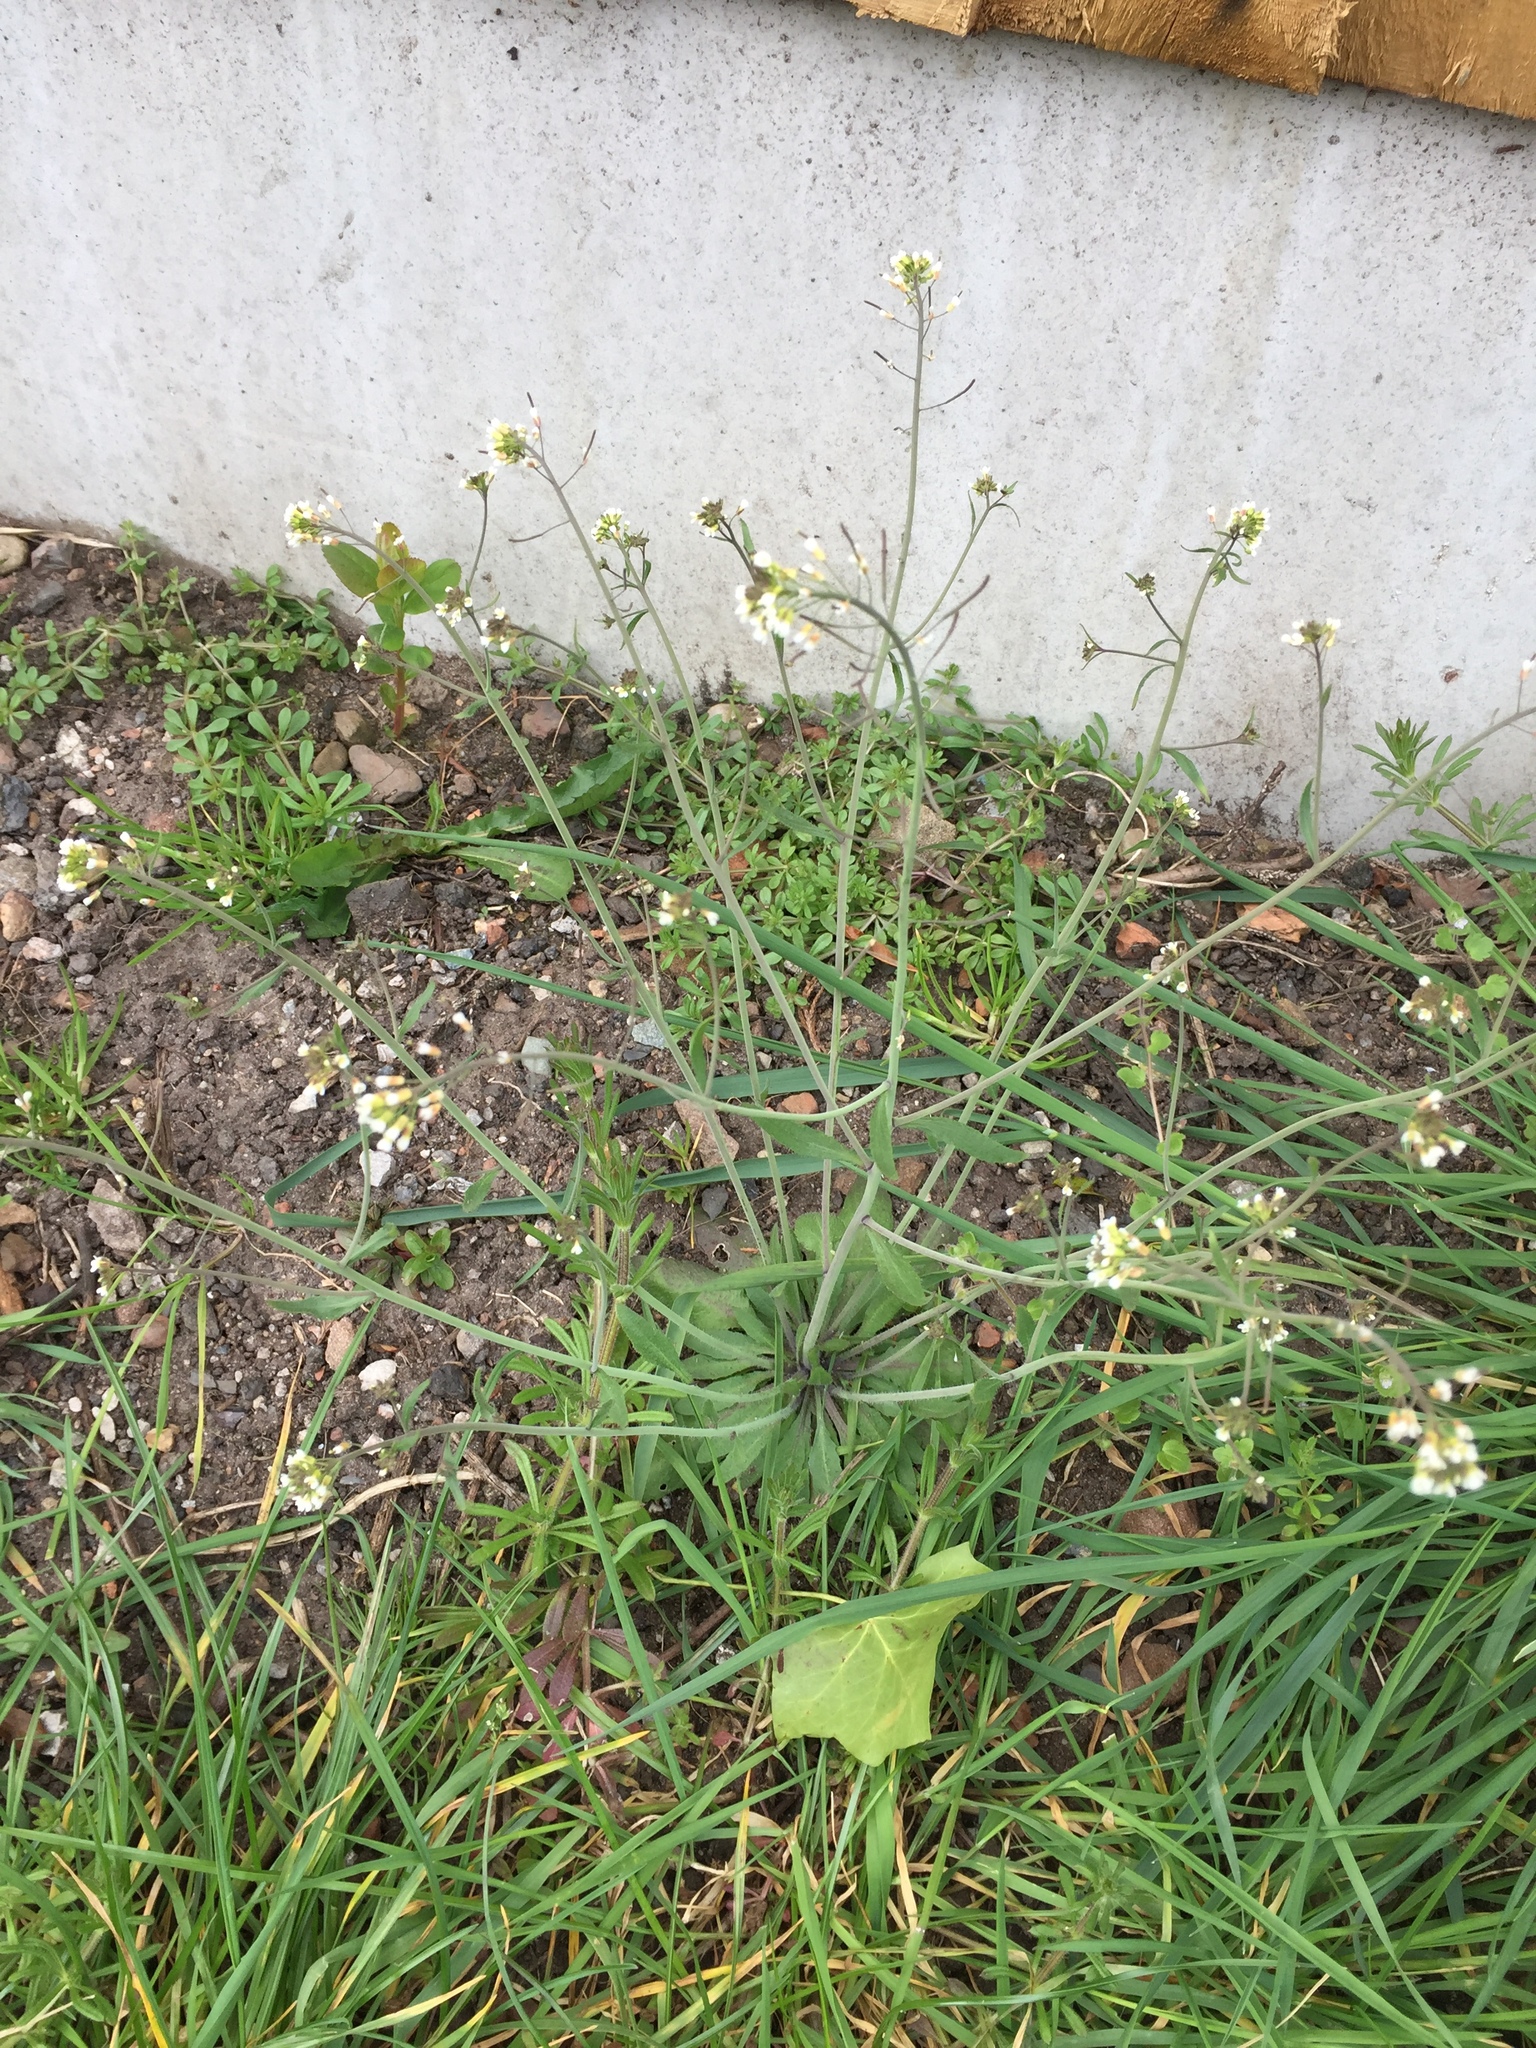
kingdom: Plantae
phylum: Tracheophyta
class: Magnoliopsida
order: Brassicales
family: Brassicaceae
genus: Arabidopsis
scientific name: Arabidopsis thaliana
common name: Thale cress
